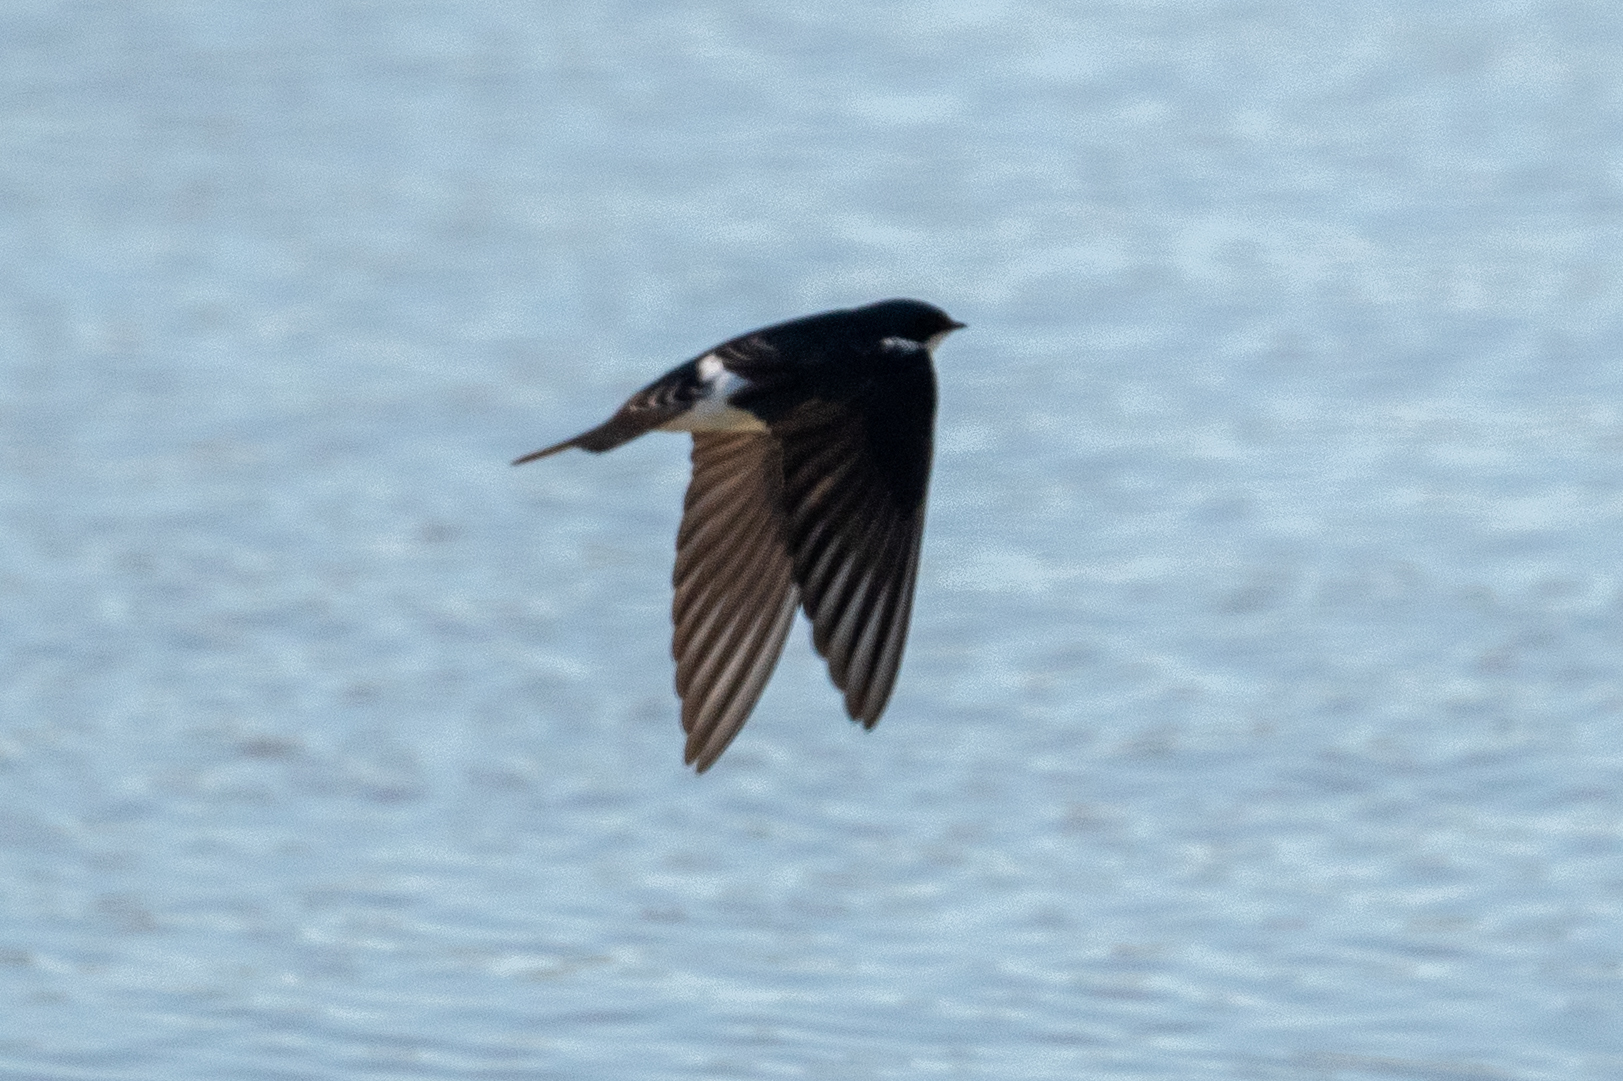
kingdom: Animalia
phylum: Chordata
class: Aves
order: Passeriformes
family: Hirundinidae
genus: Tachycineta
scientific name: Tachycineta bicolor
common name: Tree swallow
